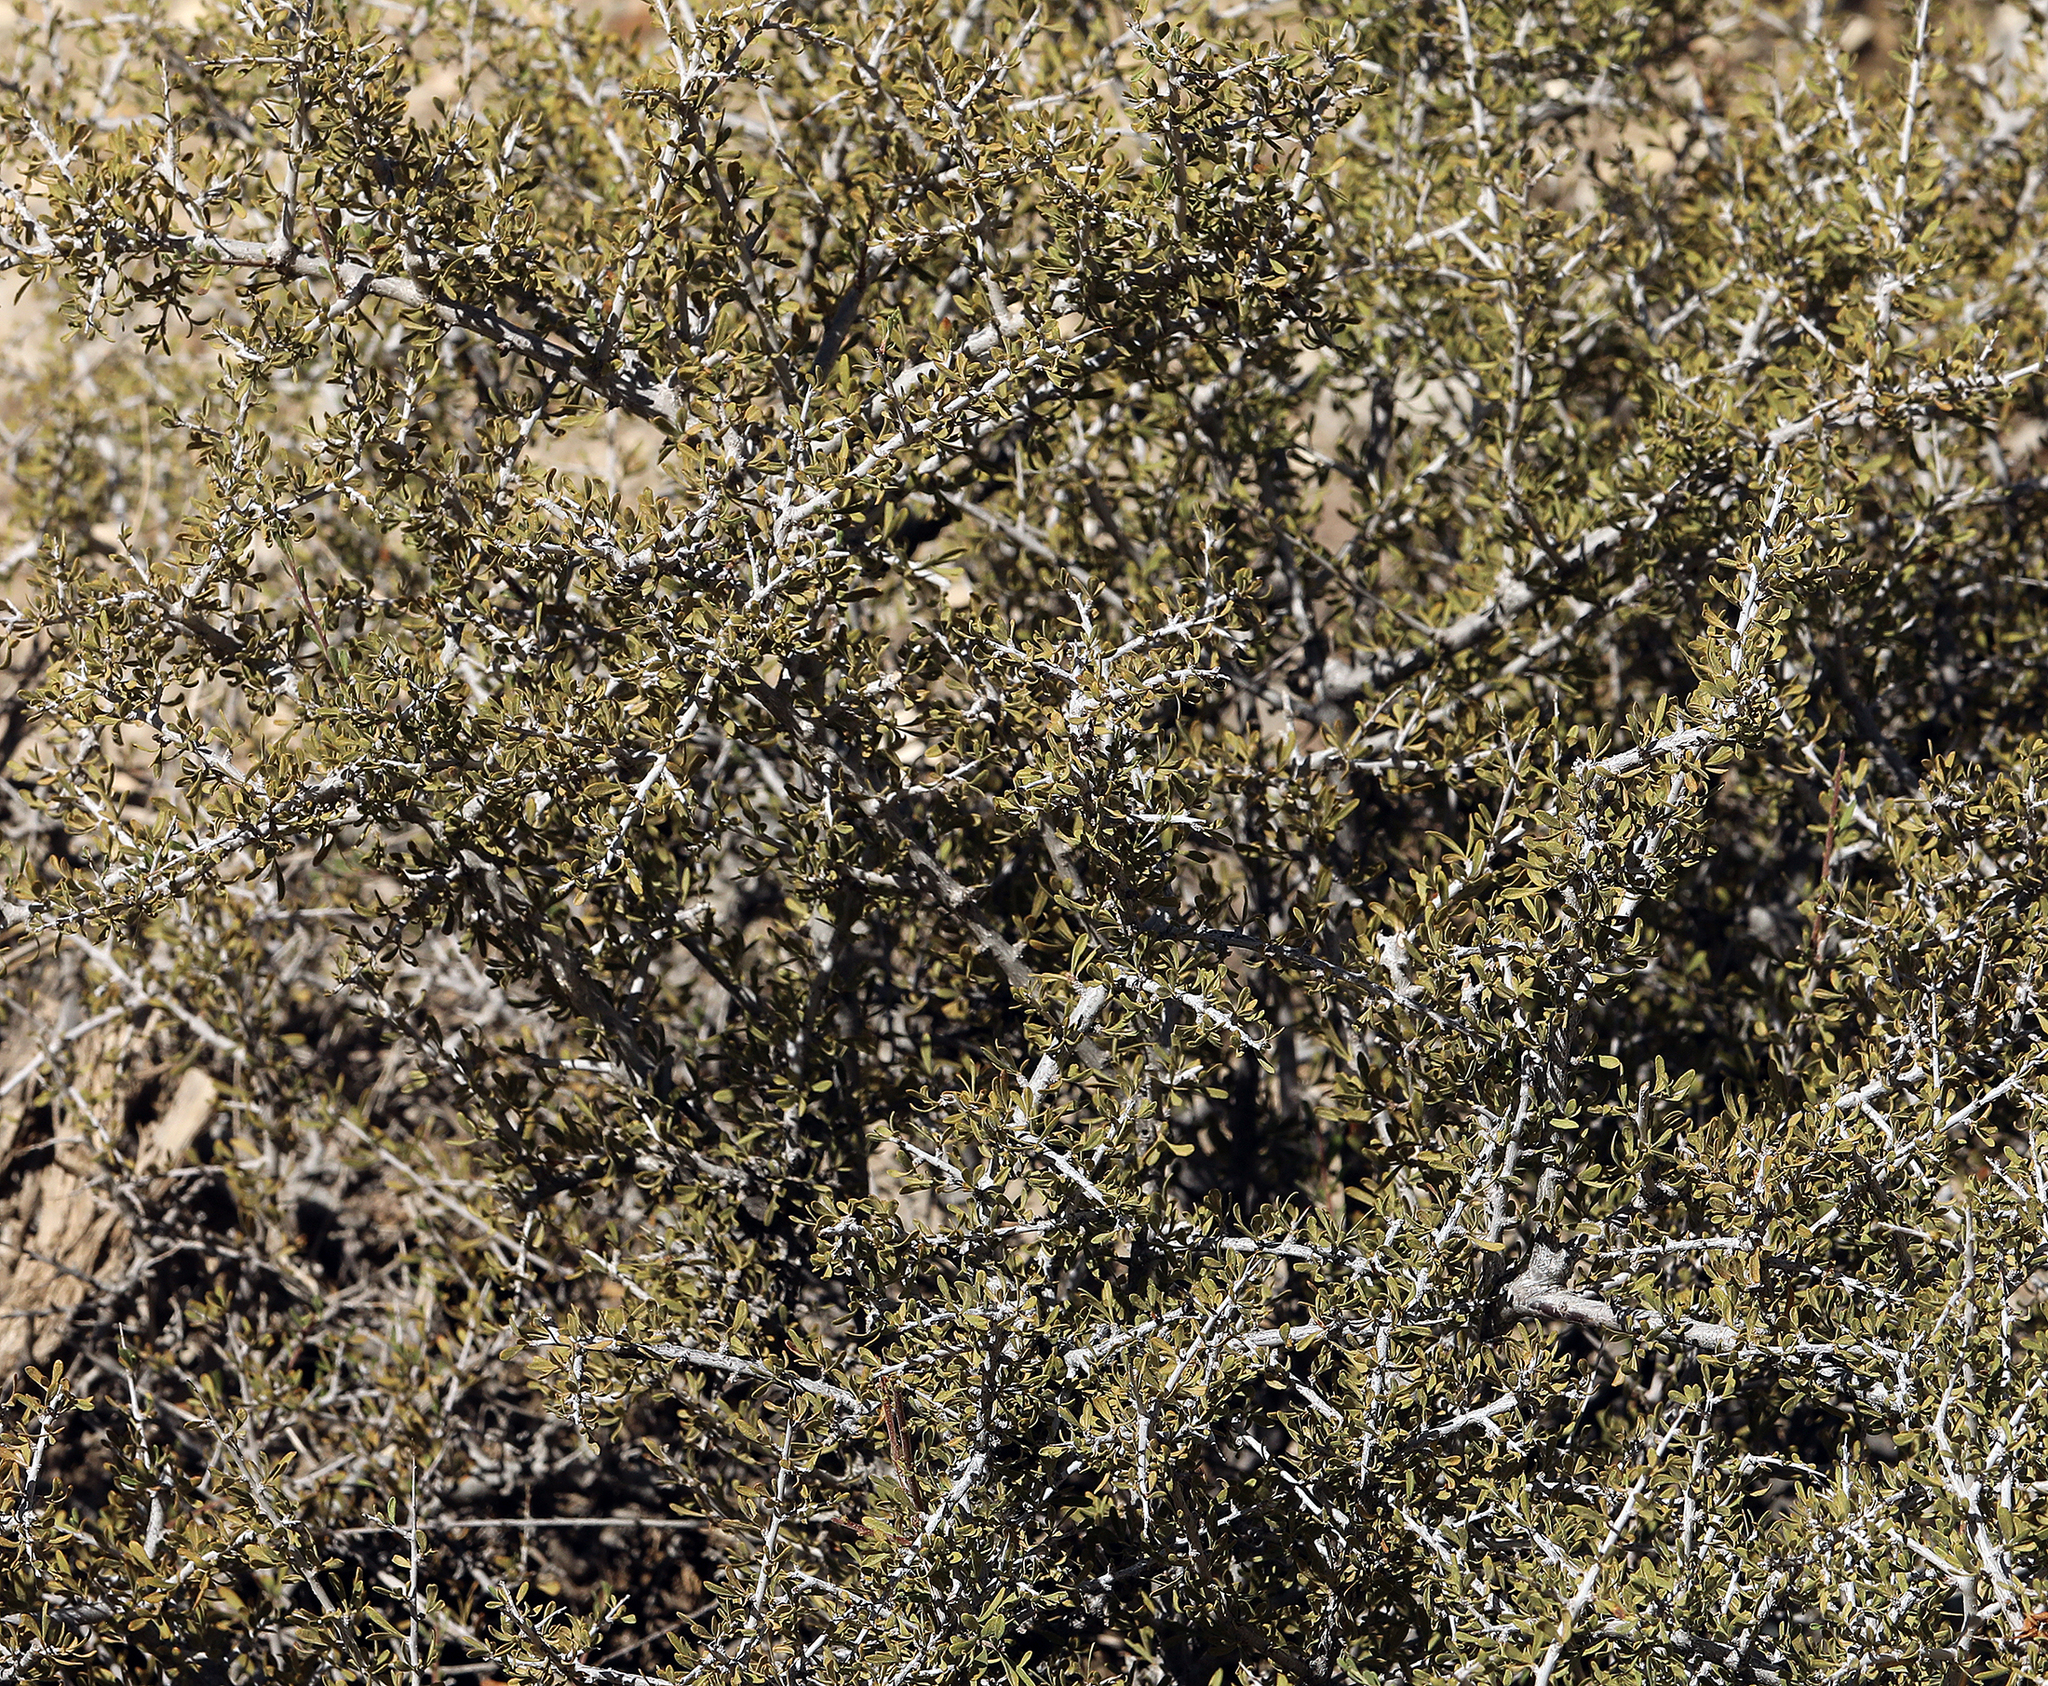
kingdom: Plantae
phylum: Tracheophyta
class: Magnoliopsida
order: Rosales
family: Rosaceae
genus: Prunus
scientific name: Prunus fasciculata
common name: Desert almond
